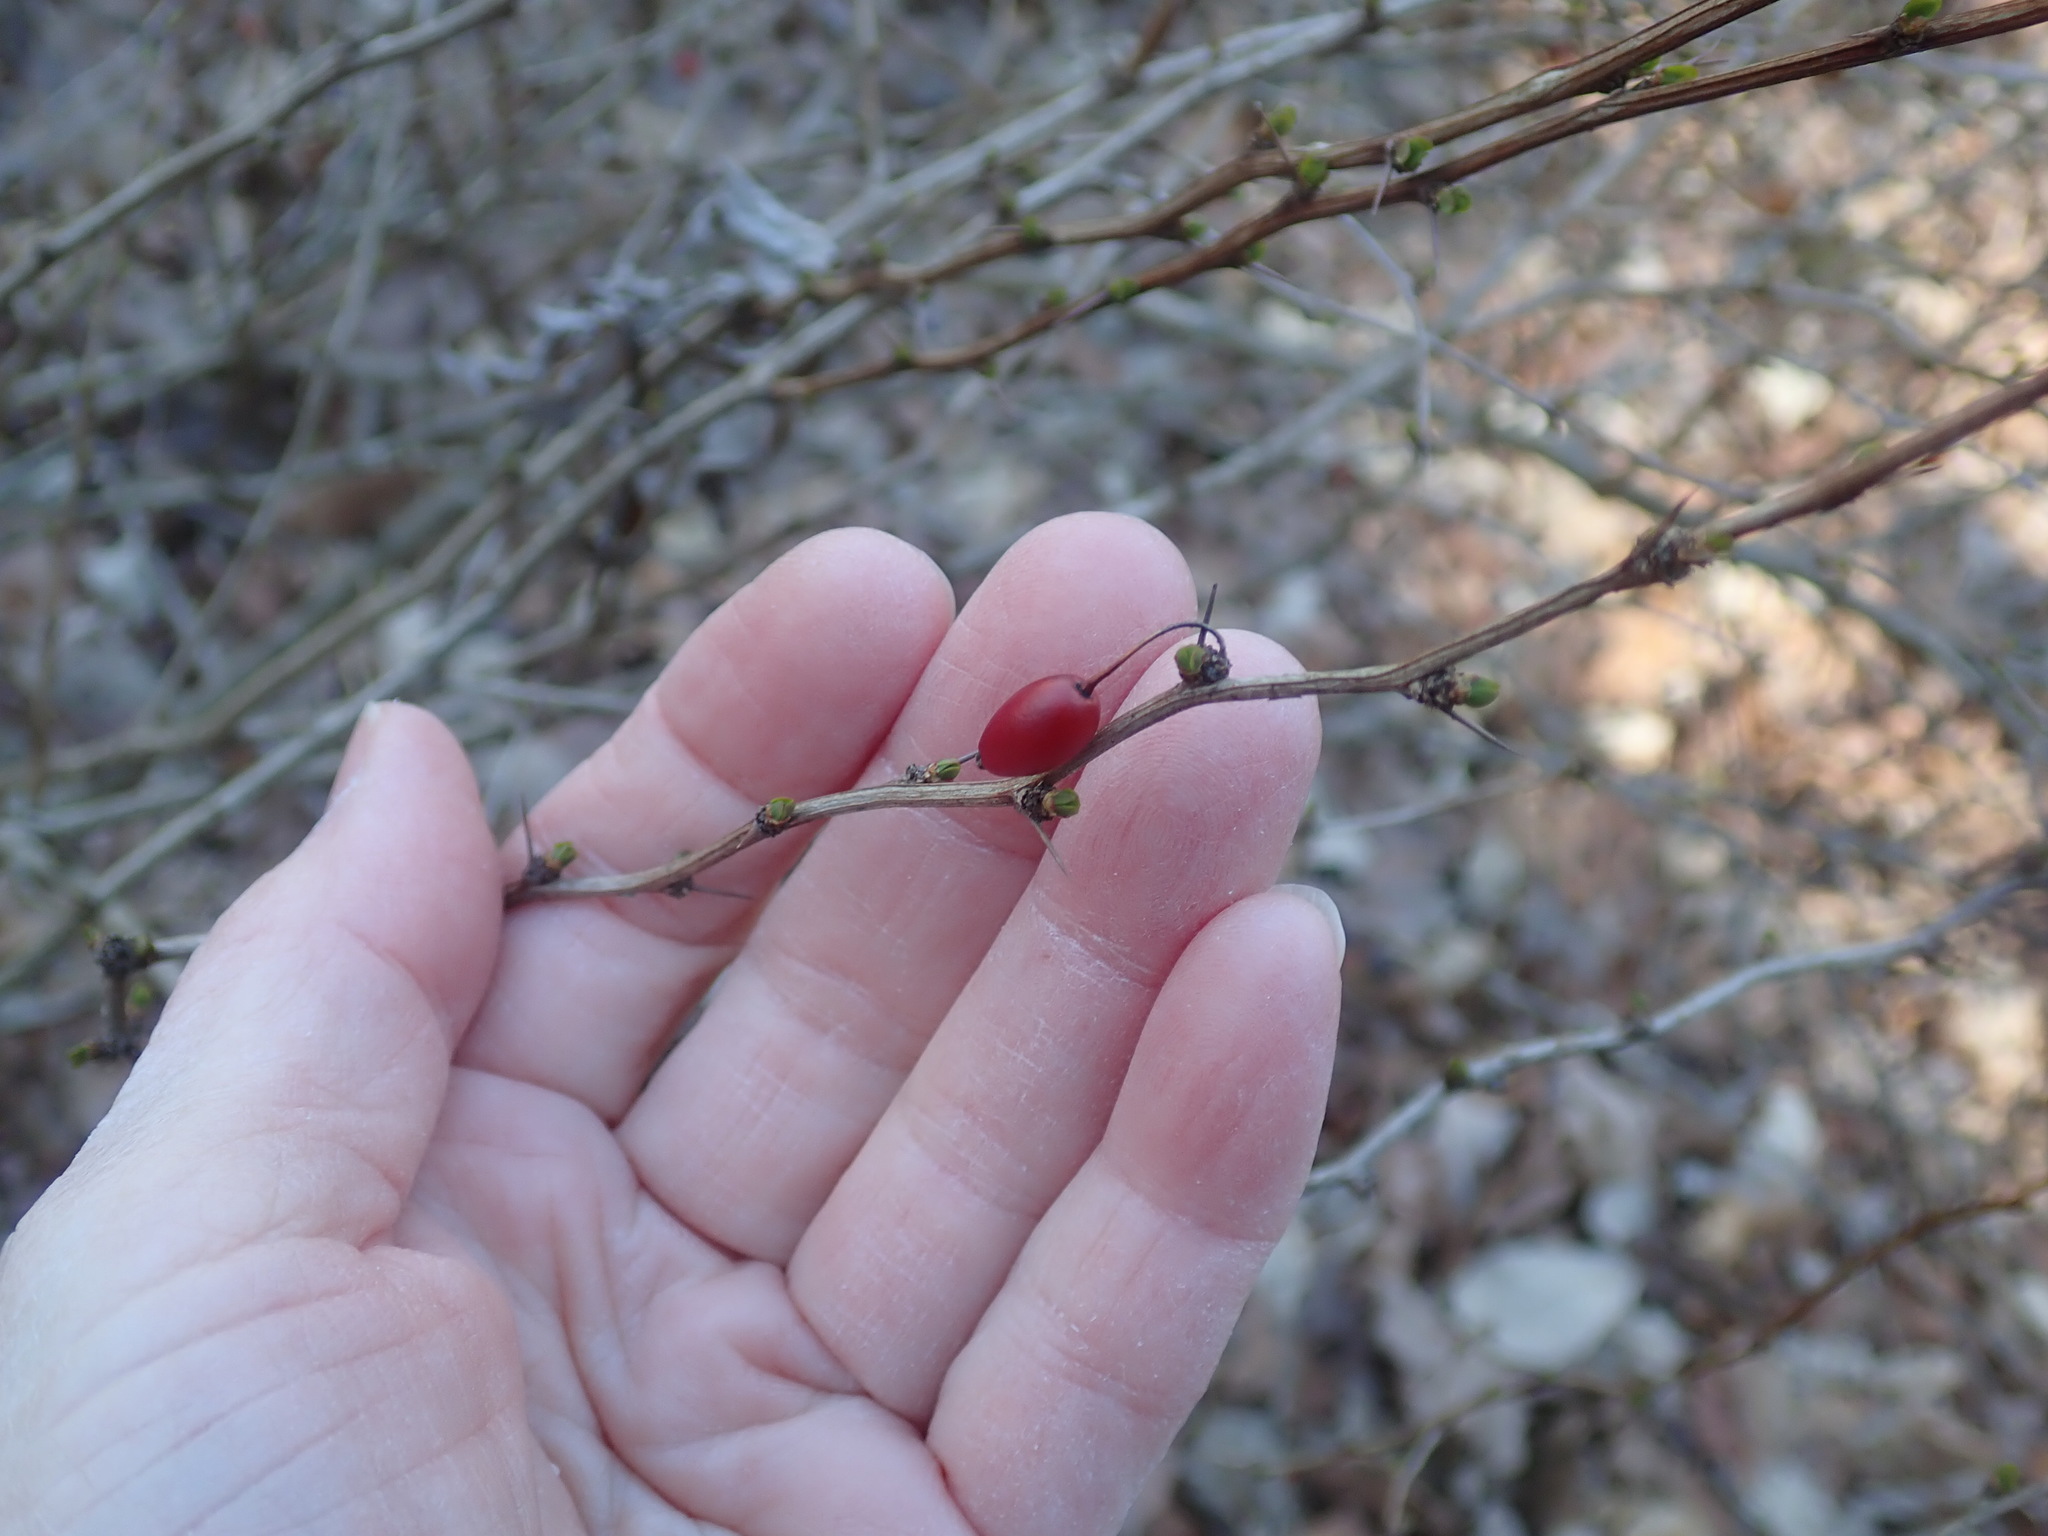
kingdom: Plantae
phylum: Tracheophyta
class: Magnoliopsida
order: Ranunculales
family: Berberidaceae
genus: Berberis
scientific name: Berberis thunbergii
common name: Japanese barberry
